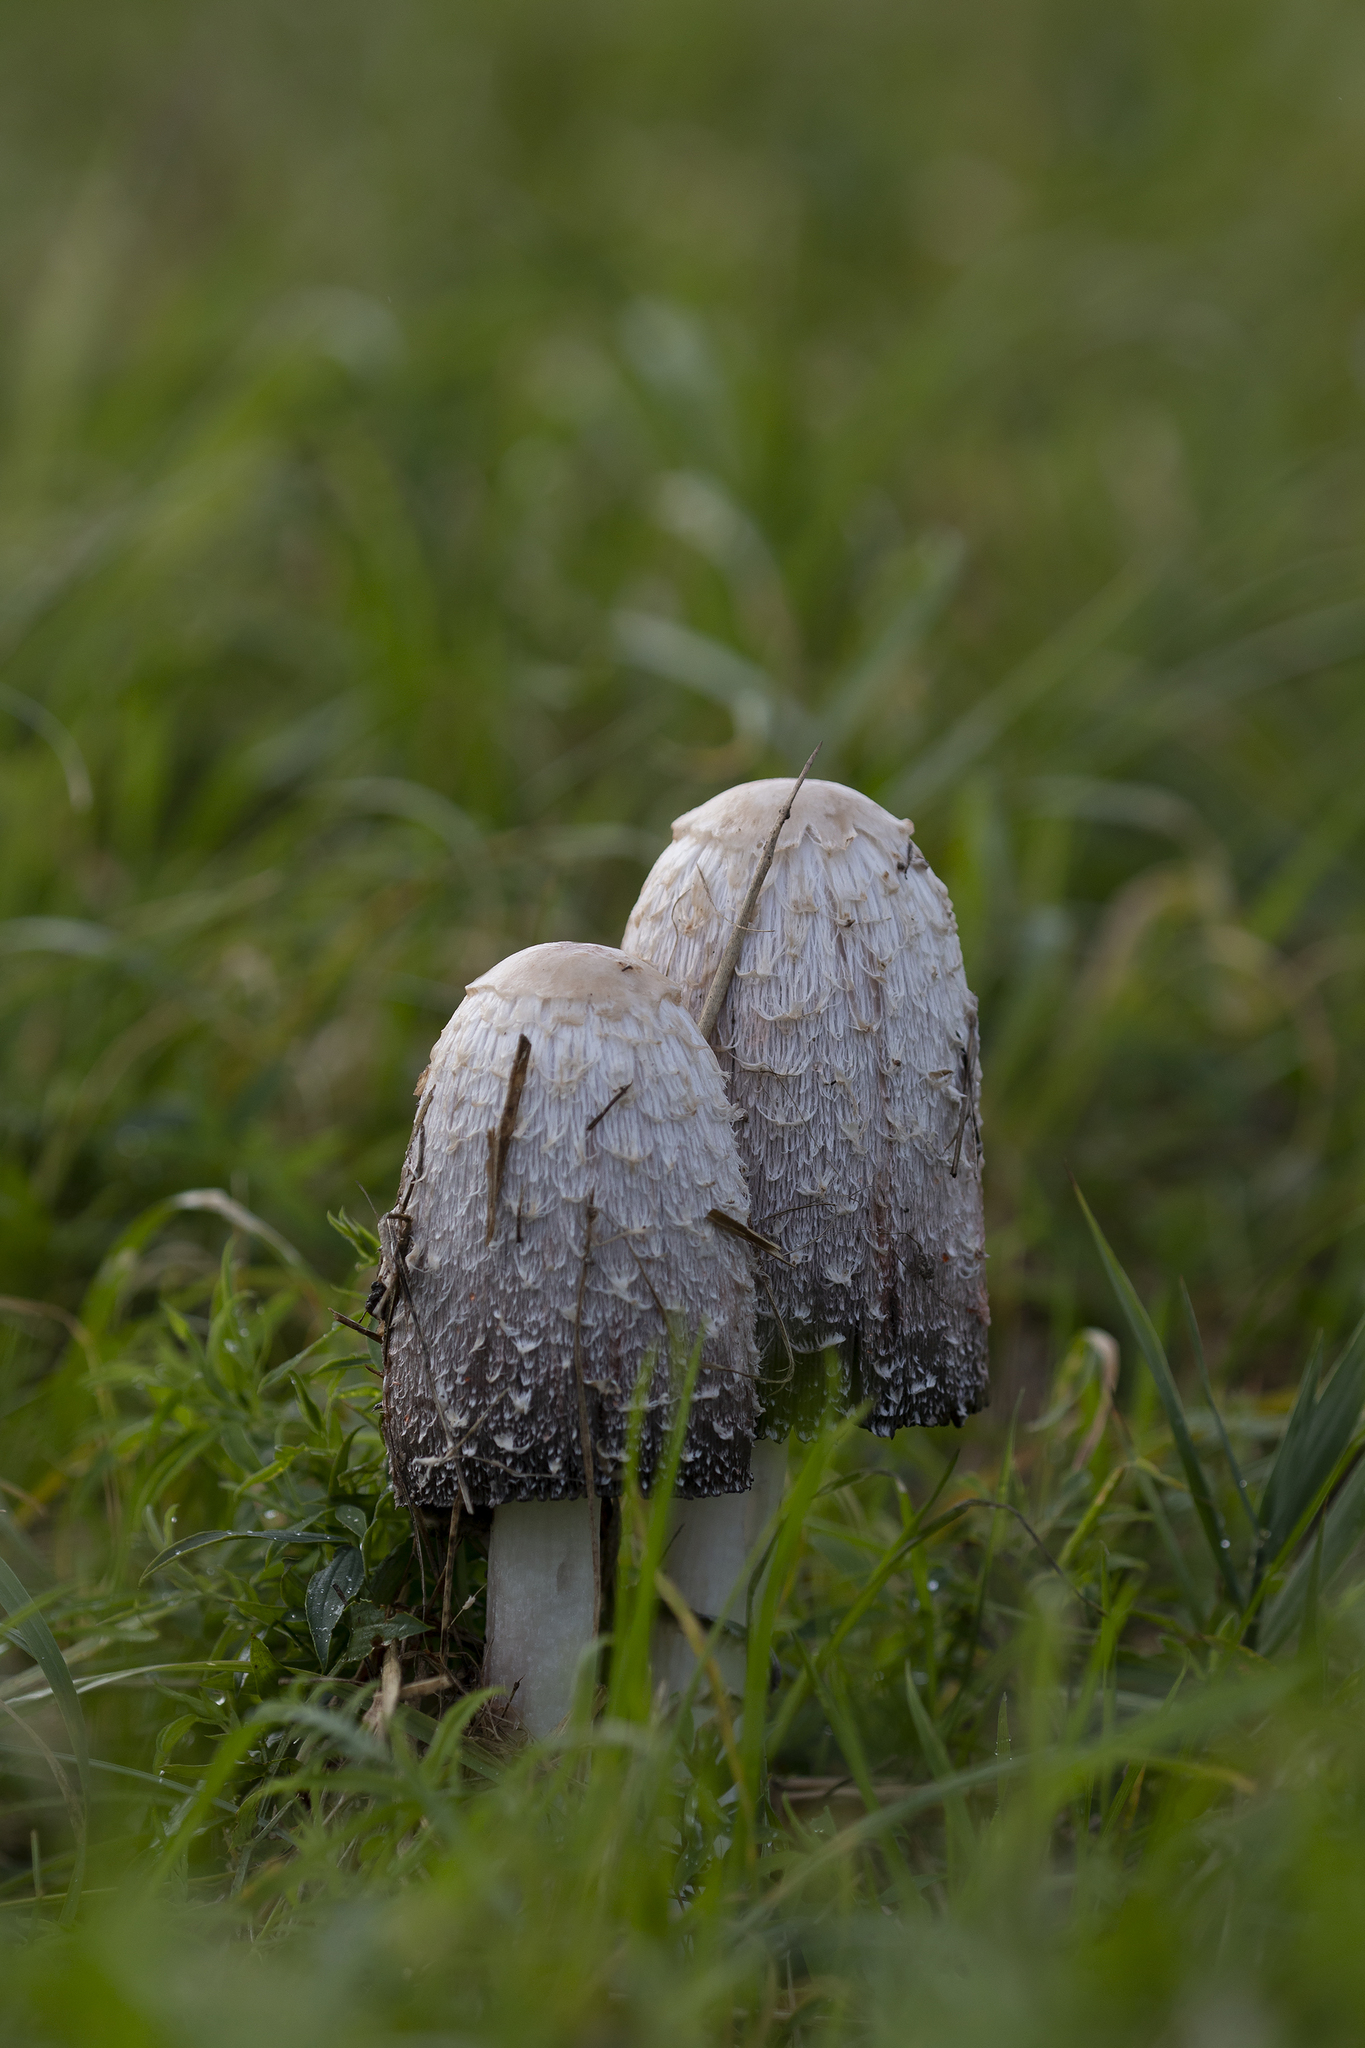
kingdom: Fungi
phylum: Basidiomycota
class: Agaricomycetes
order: Agaricales
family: Agaricaceae
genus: Coprinus
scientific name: Coprinus comatus
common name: Lawyer's wig
